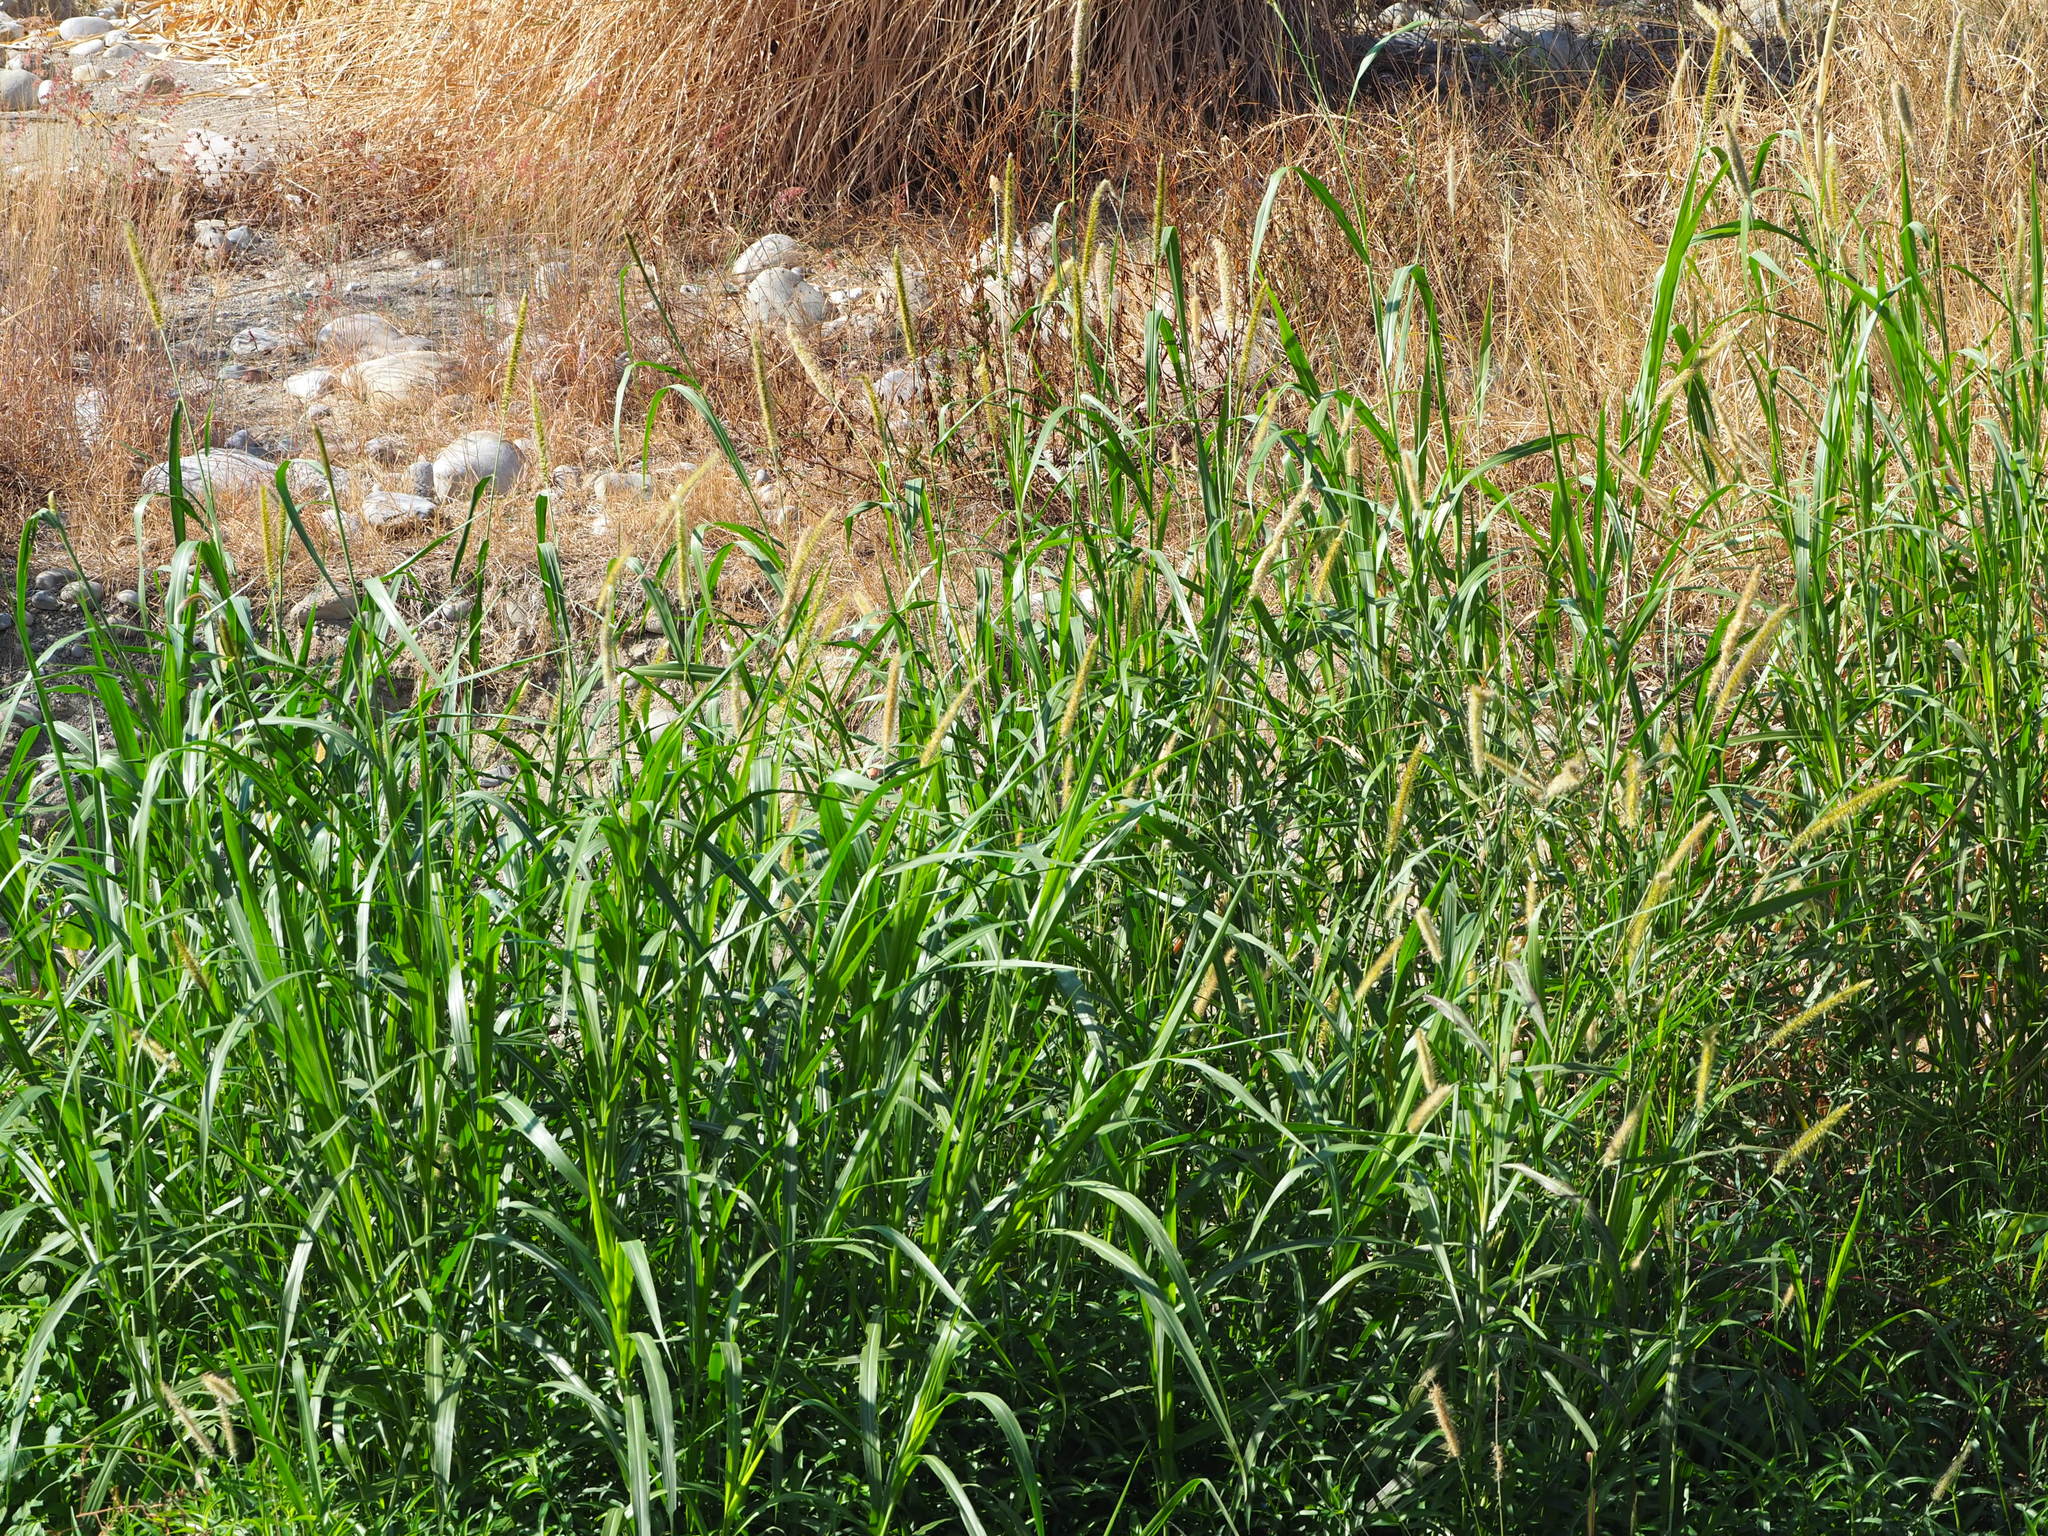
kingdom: Plantae
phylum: Tracheophyta
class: Liliopsida
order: Poales
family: Poaceae
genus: Cenchrus
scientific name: Cenchrus purpureus
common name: Elephant grass
